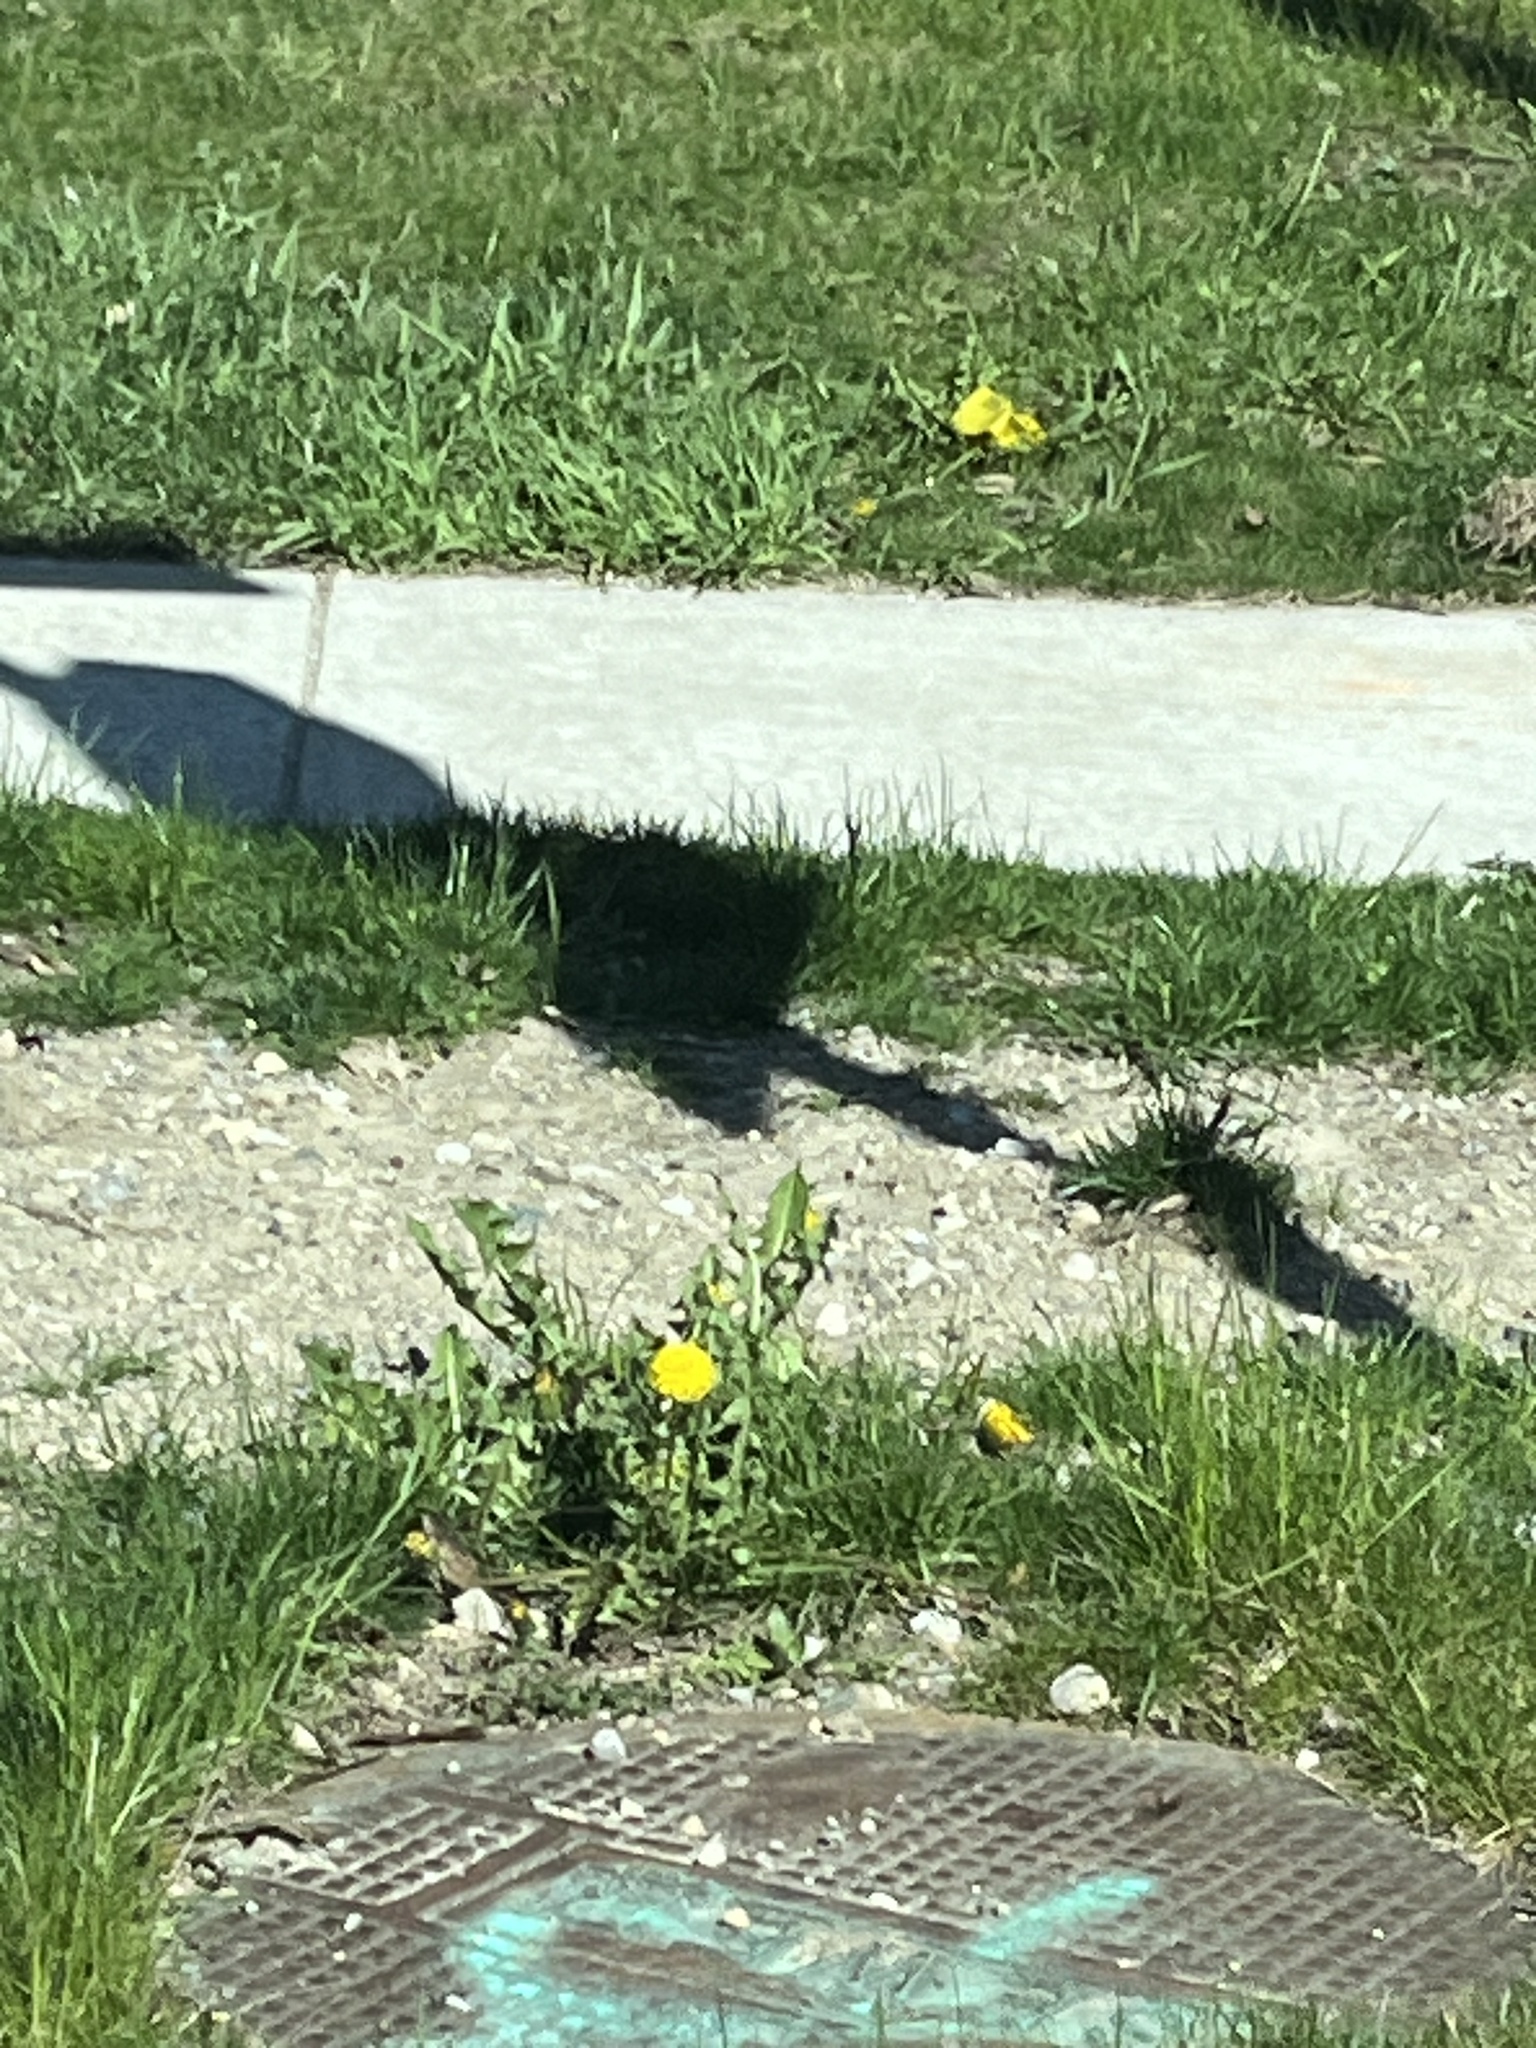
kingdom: Plantae
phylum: Tracheophyta
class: Magnoliopsida
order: Asterales
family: Asteraceae
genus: Taraxacum
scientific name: Taraxacum officinale
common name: Common dandelion
